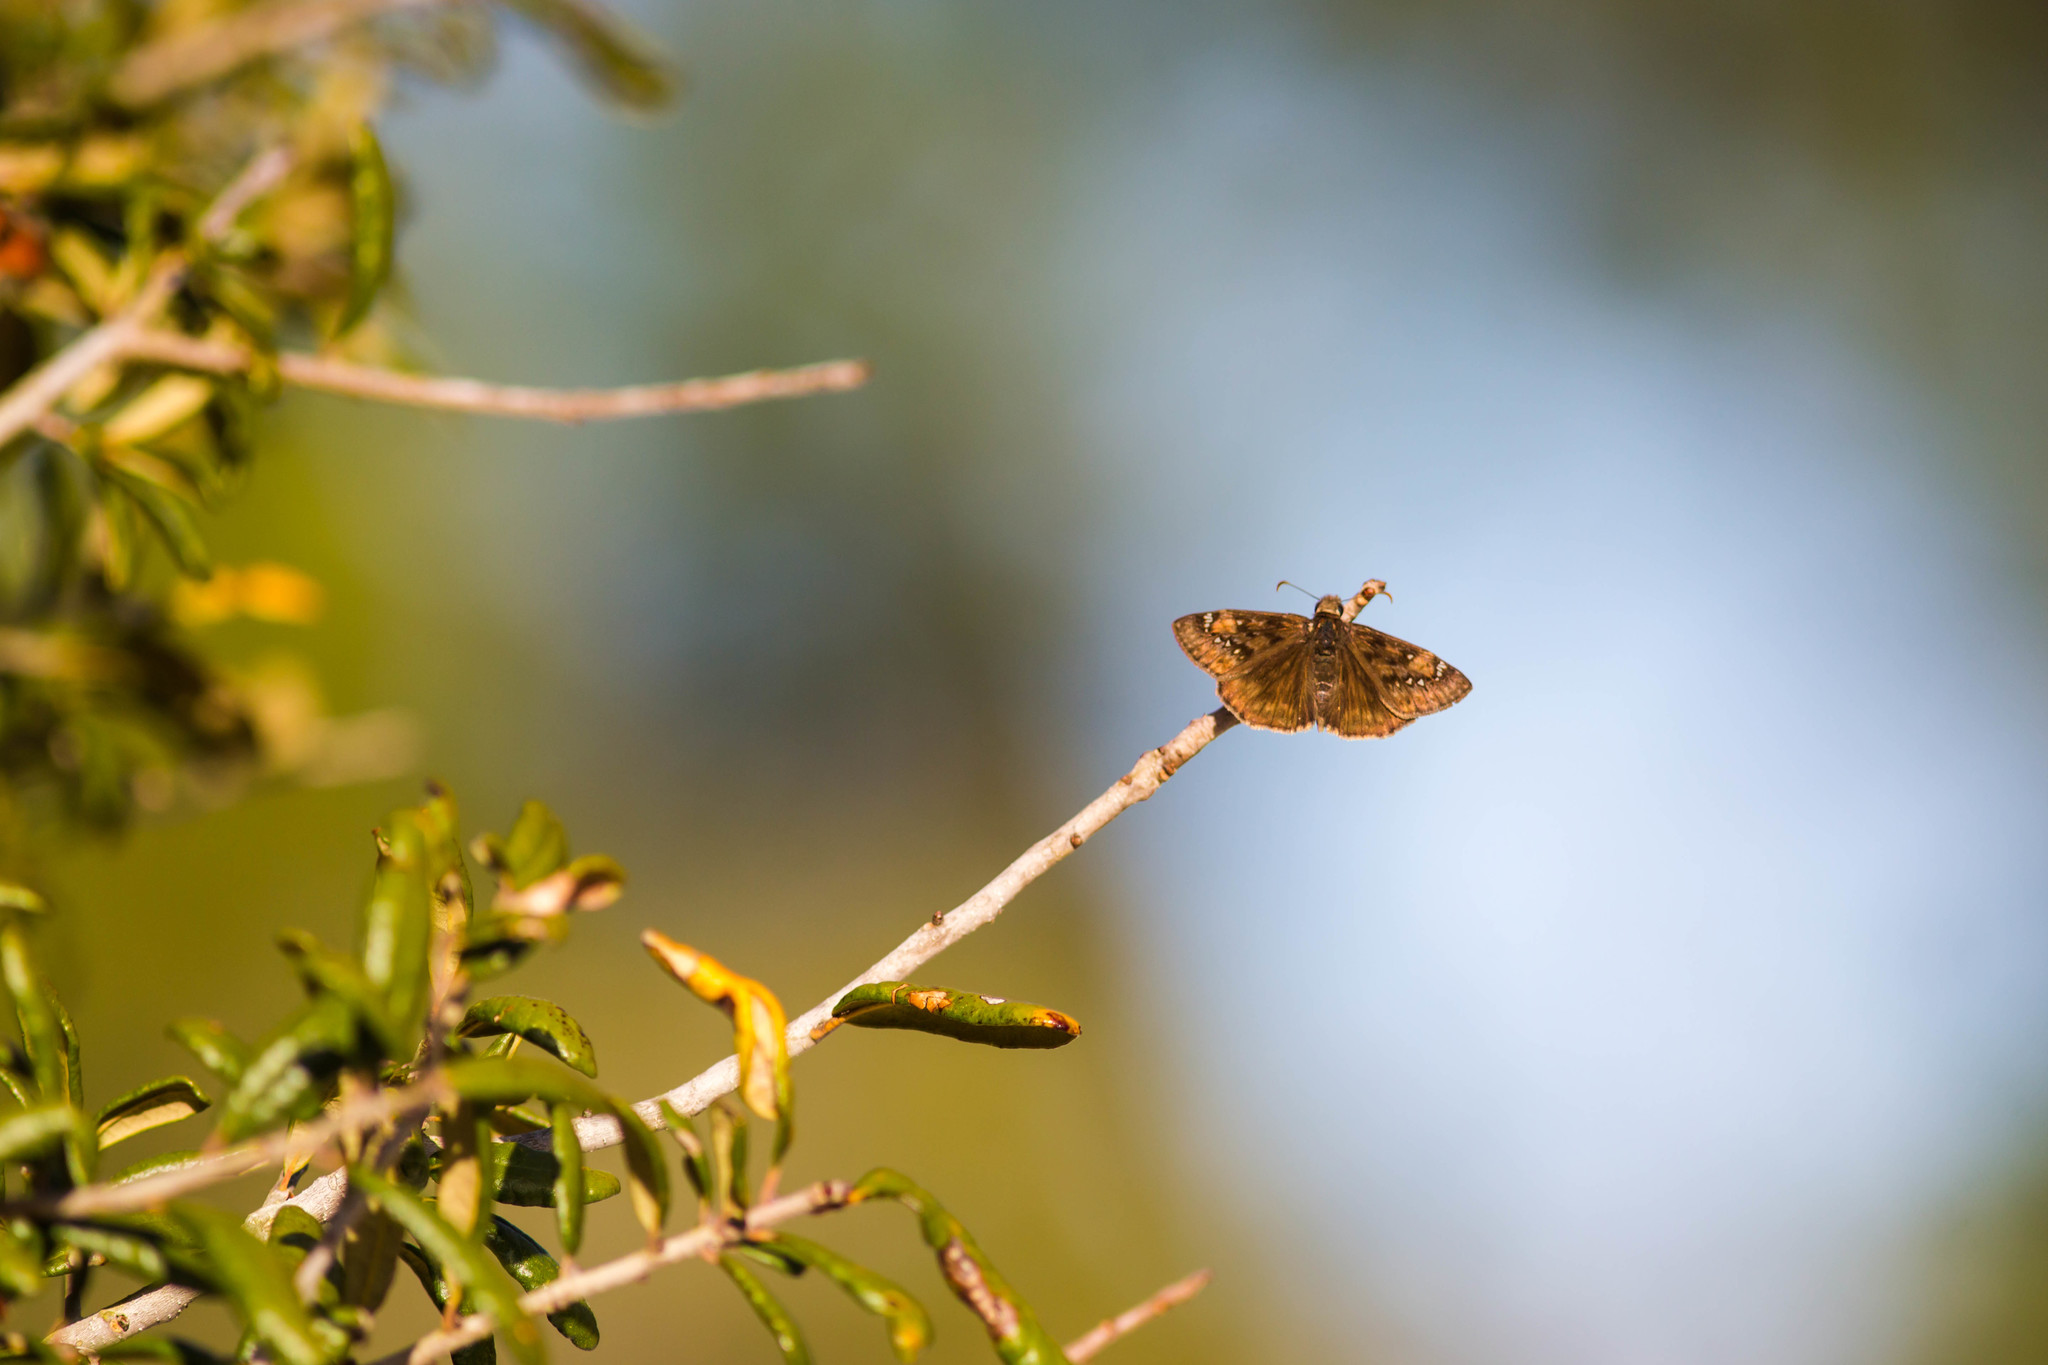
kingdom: Animalia
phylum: Arthropoda
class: Insecta
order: Lepidoptera
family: Hesperiidae
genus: Erynnis
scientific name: Erynnis juvenalis
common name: Juvenal's duskywing
